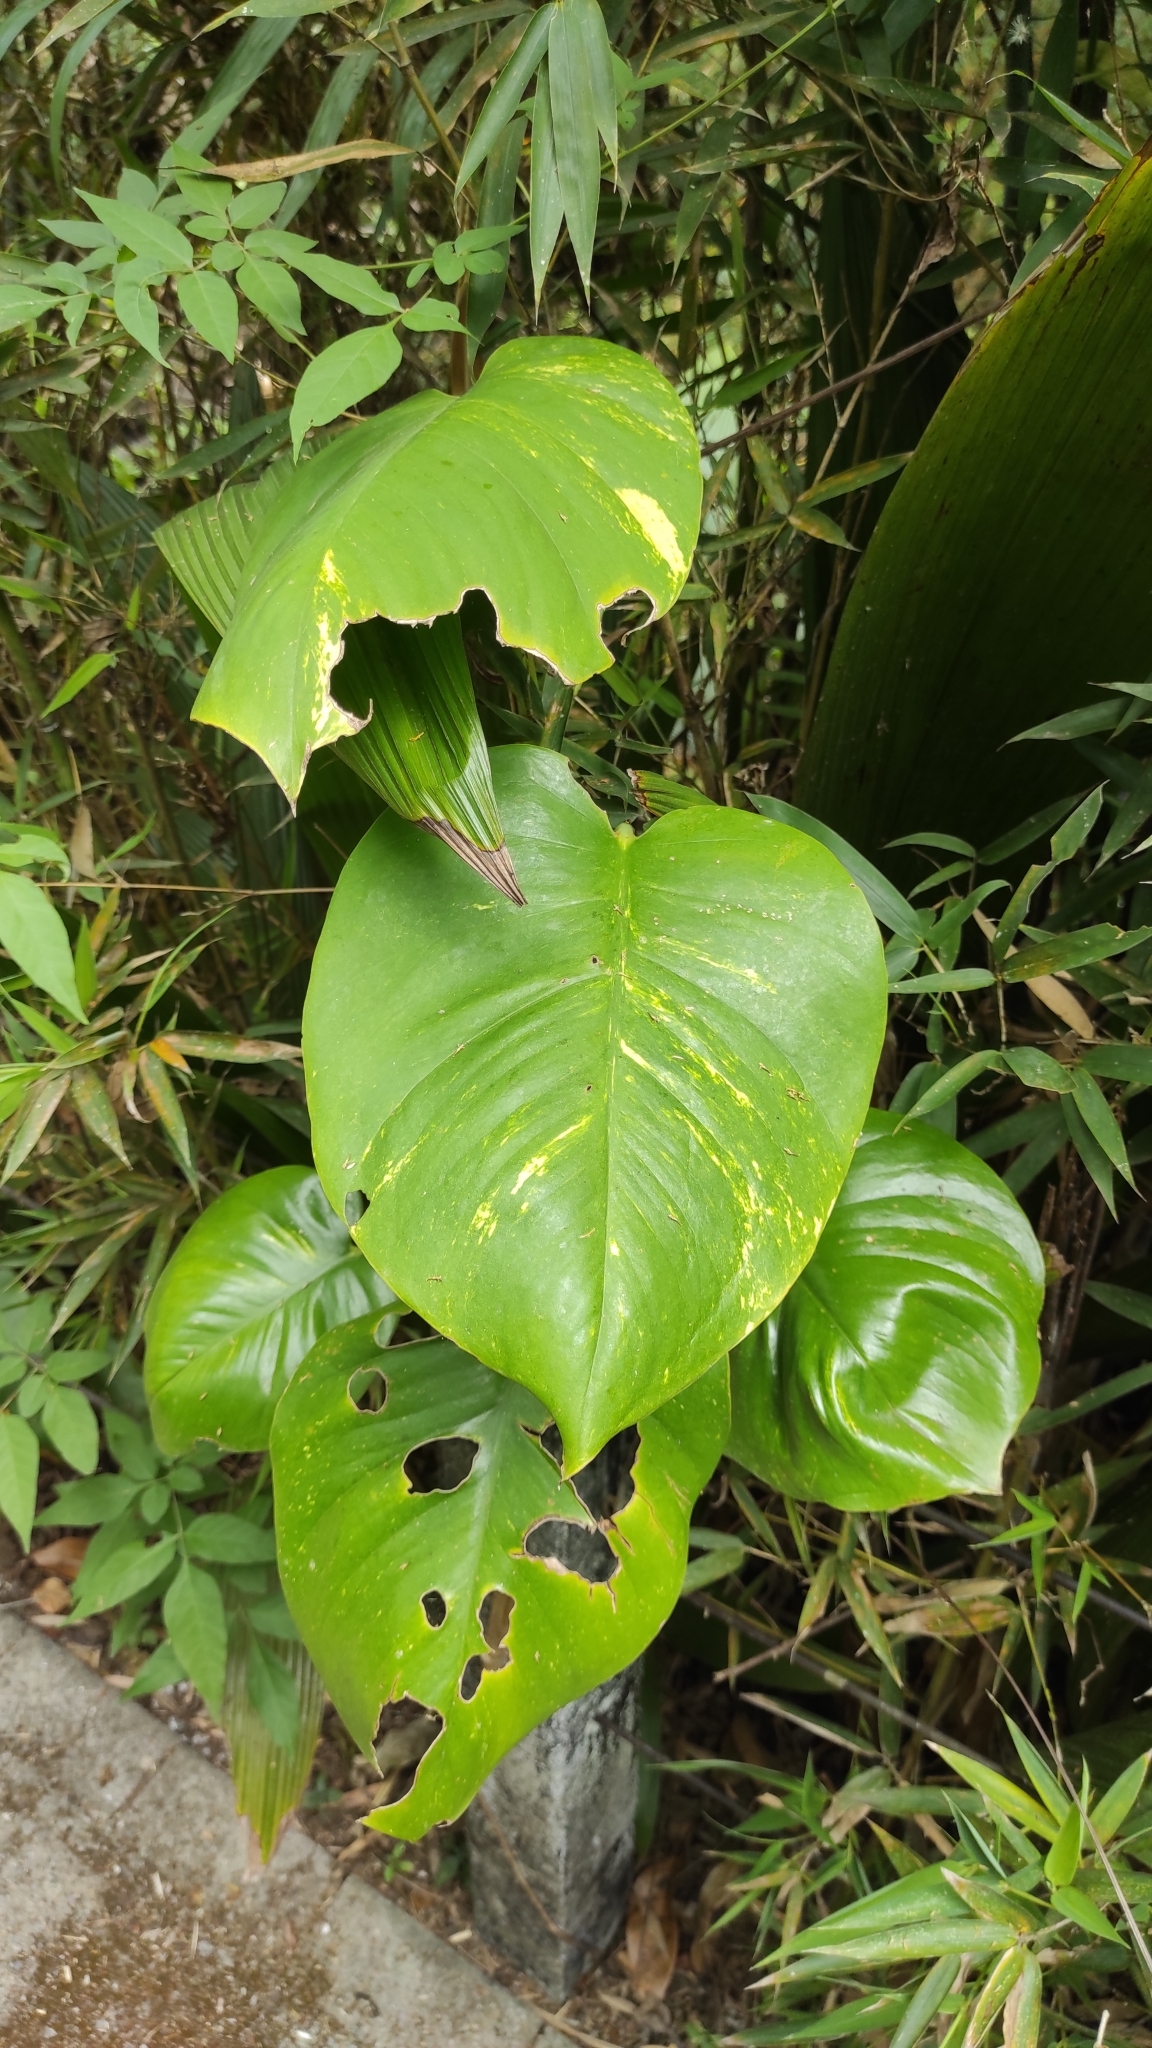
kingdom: Plantae
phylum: Tracheophyta
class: Liliopsida
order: Alismatales
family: Araceae
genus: Epipremnum
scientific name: Epipremnum aureum
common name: Golden hunter's-robe
